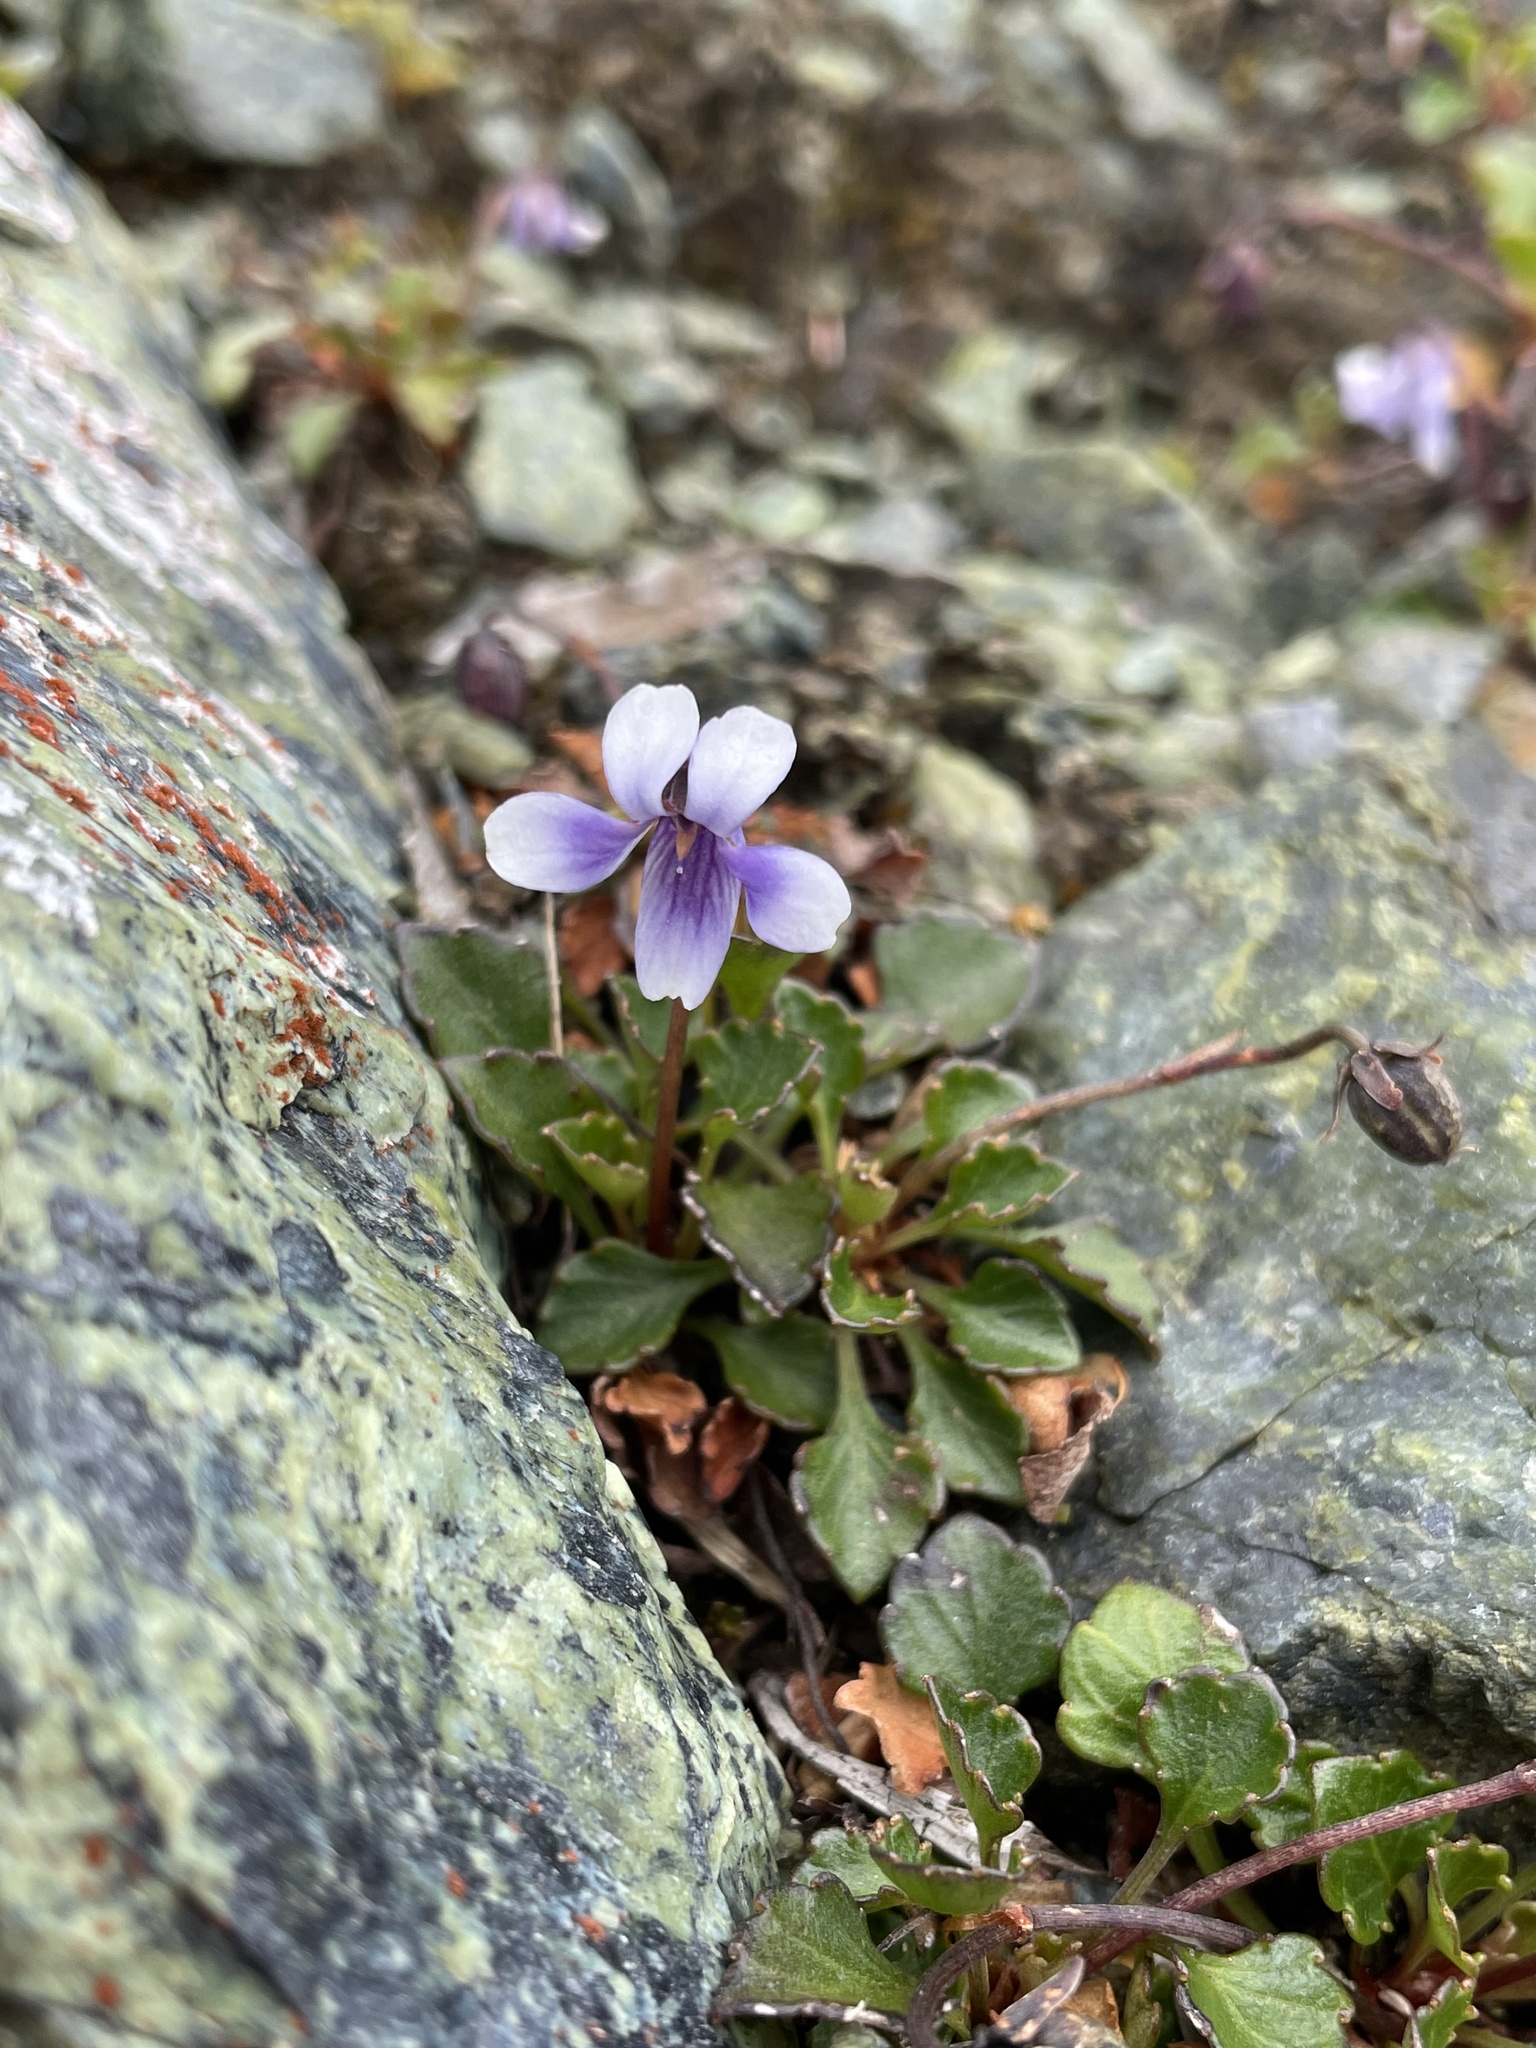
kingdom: Plantae
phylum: Tracheophyta
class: Magnoliopsida
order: Malpighiales
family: Violaceae
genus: Viola
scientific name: Viola serpentinicola
